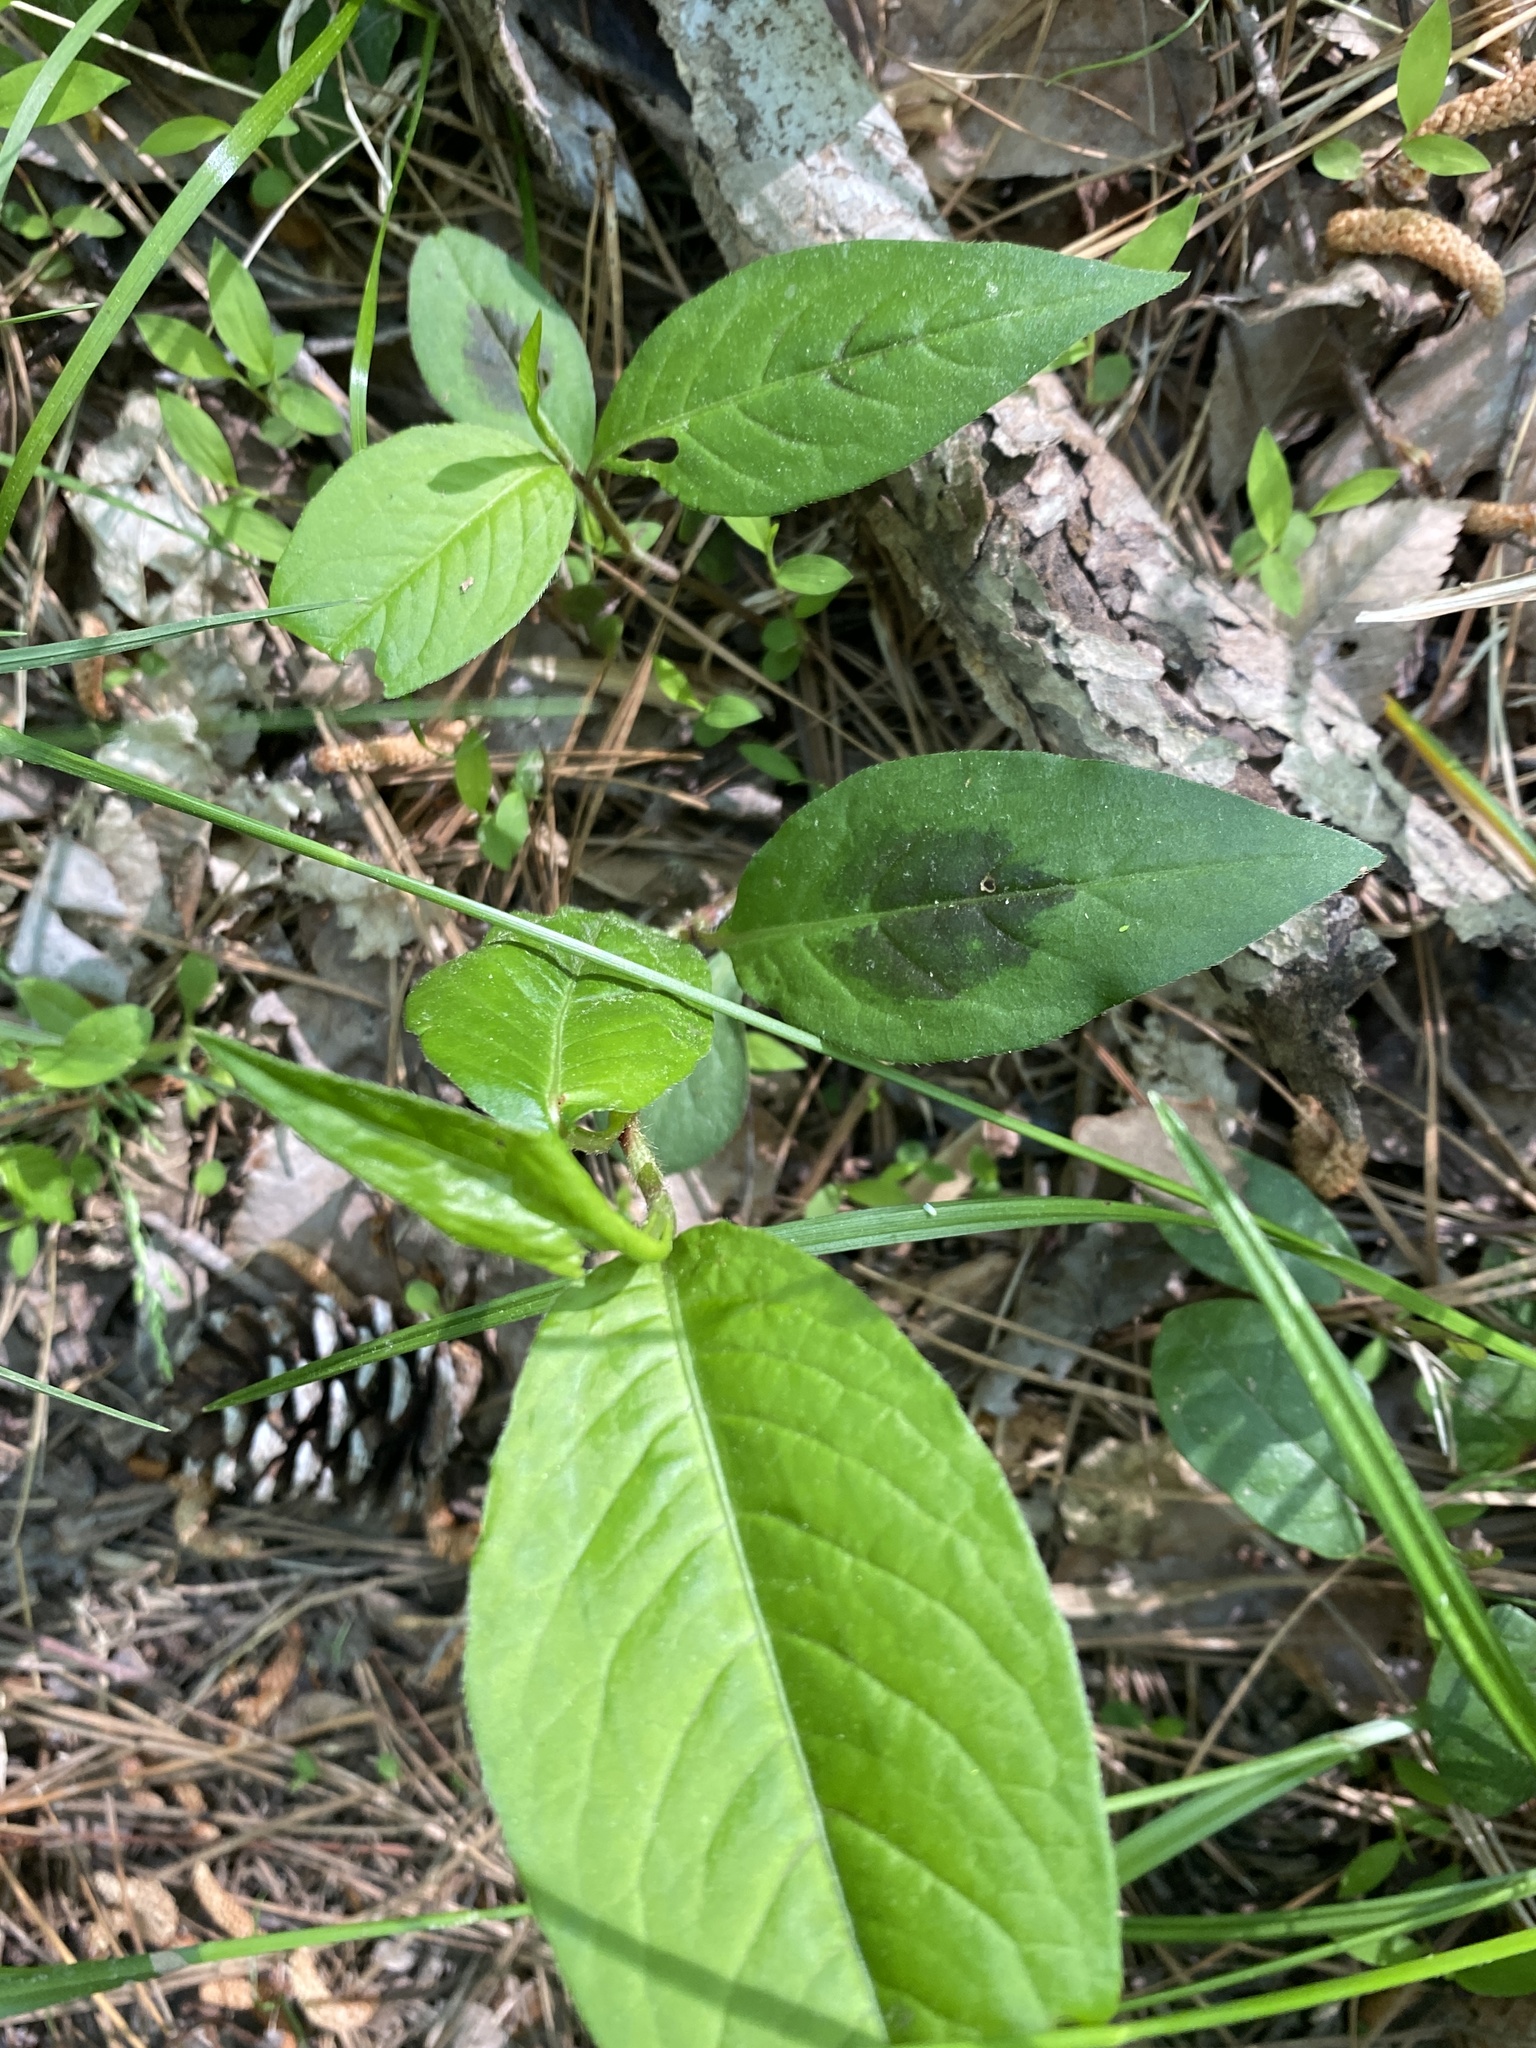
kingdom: Plantae
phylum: Tracheophyta
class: Magnoliopsida
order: Caryophyllales
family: Polygonaceae
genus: Persicaria
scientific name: Persicaria virginiana
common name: Jumpseed
